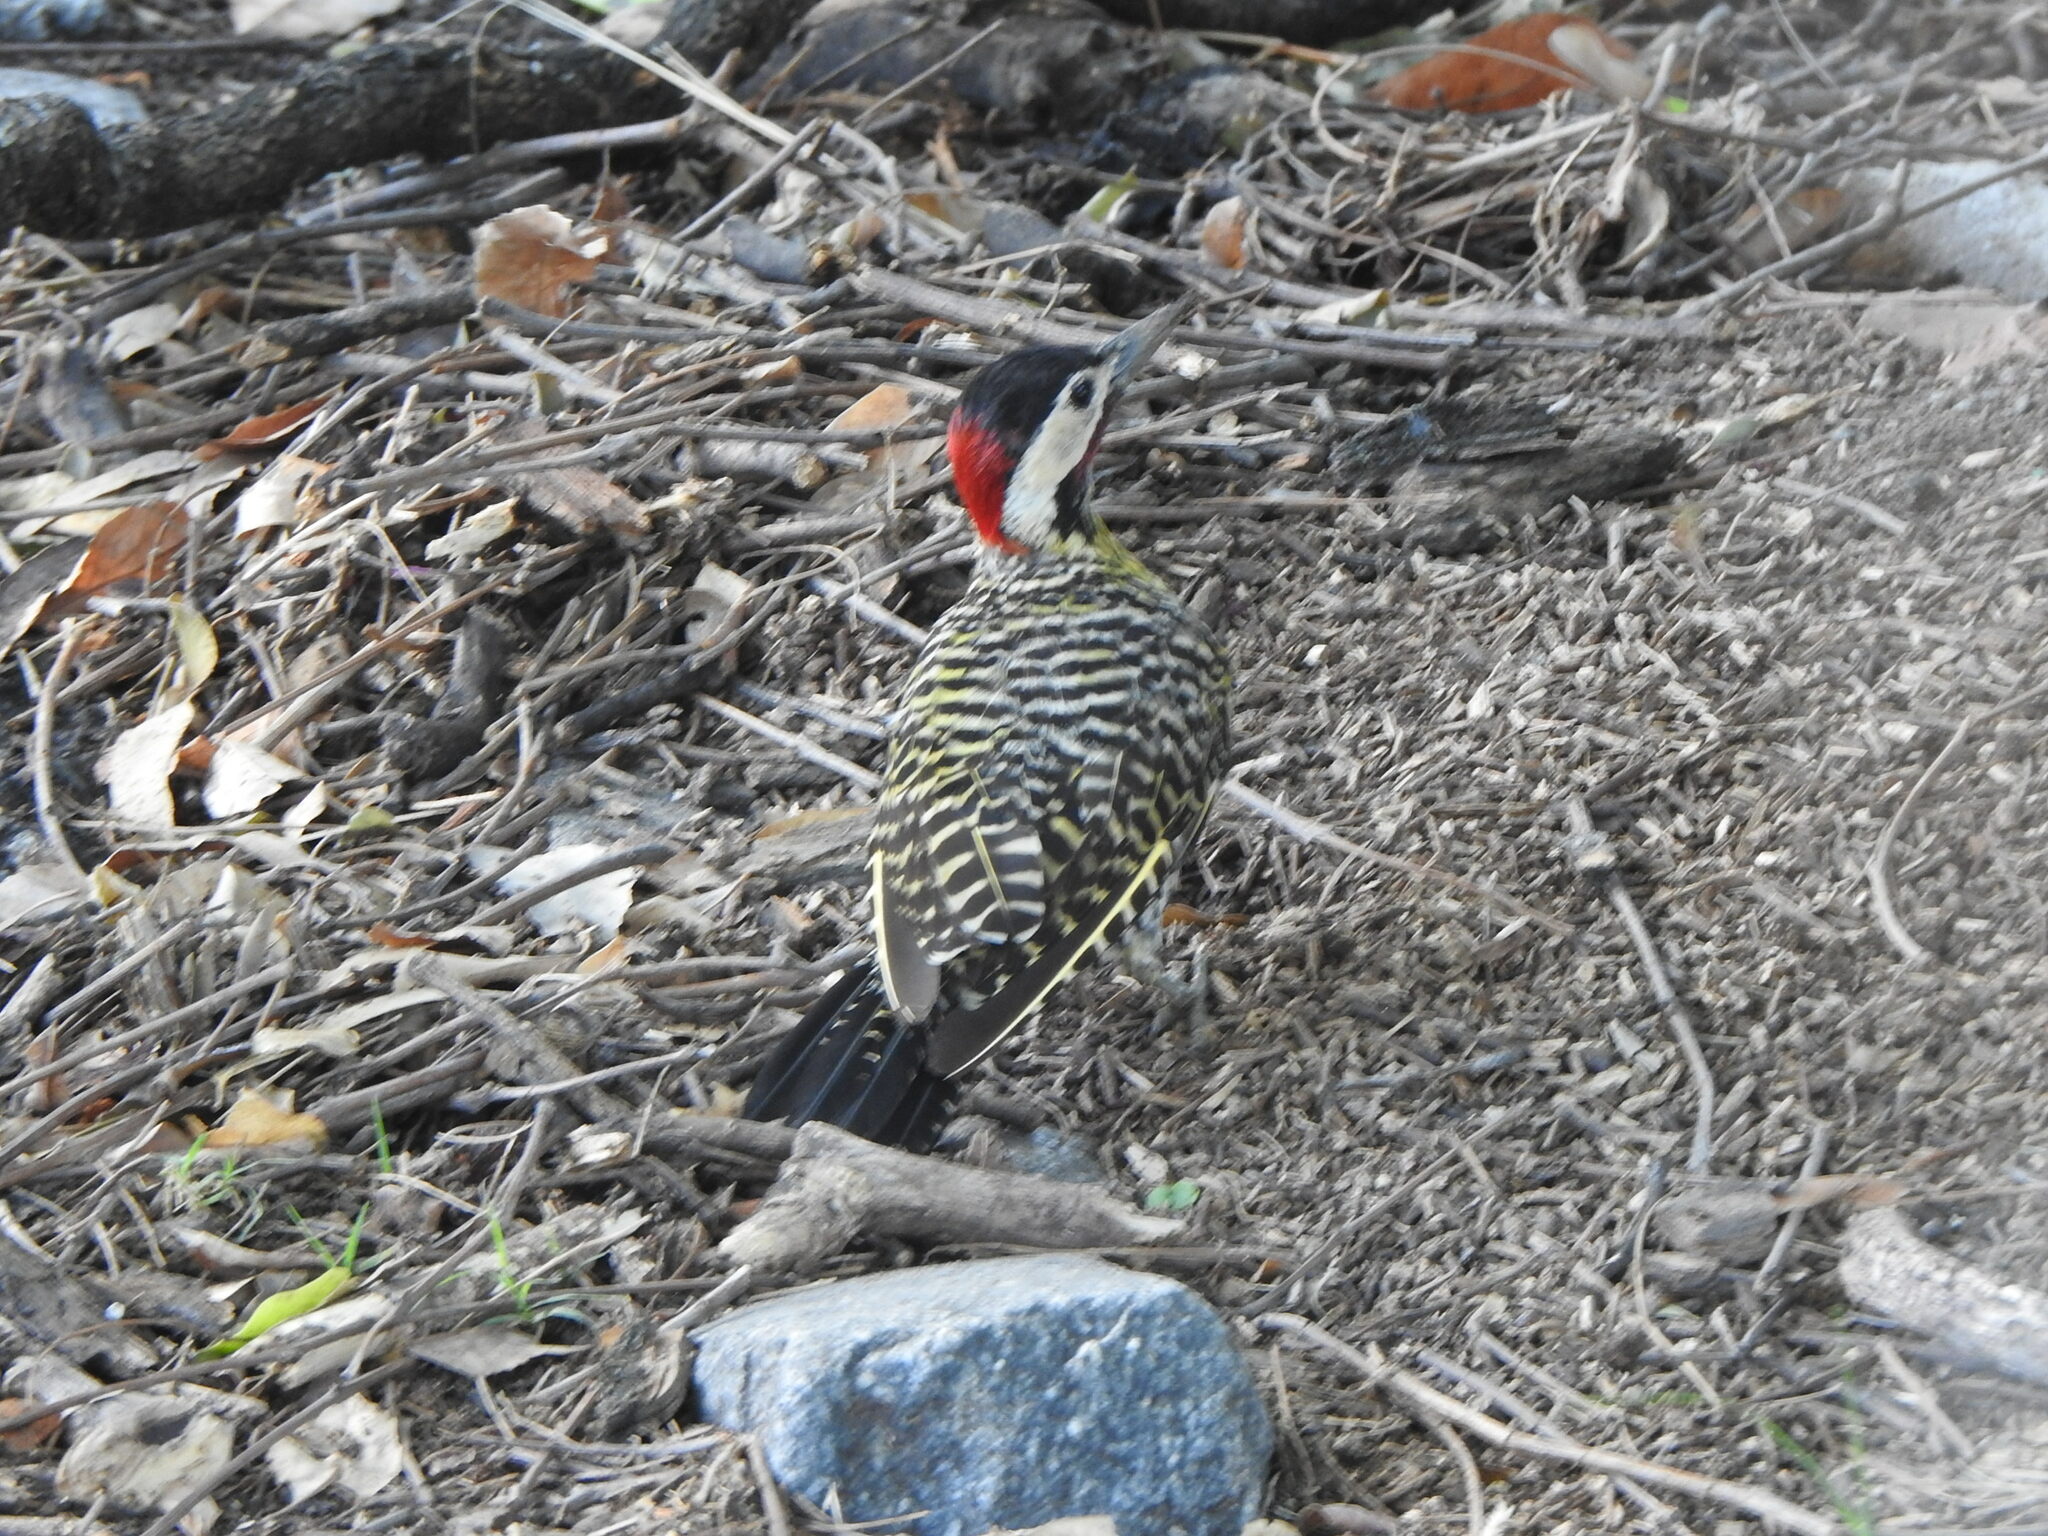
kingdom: Animalia
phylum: Chordata
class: Aves
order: Piciformes
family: Picidae
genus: Colaptes
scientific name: Colaptes melanochloros
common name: Green-barred woodpecker
